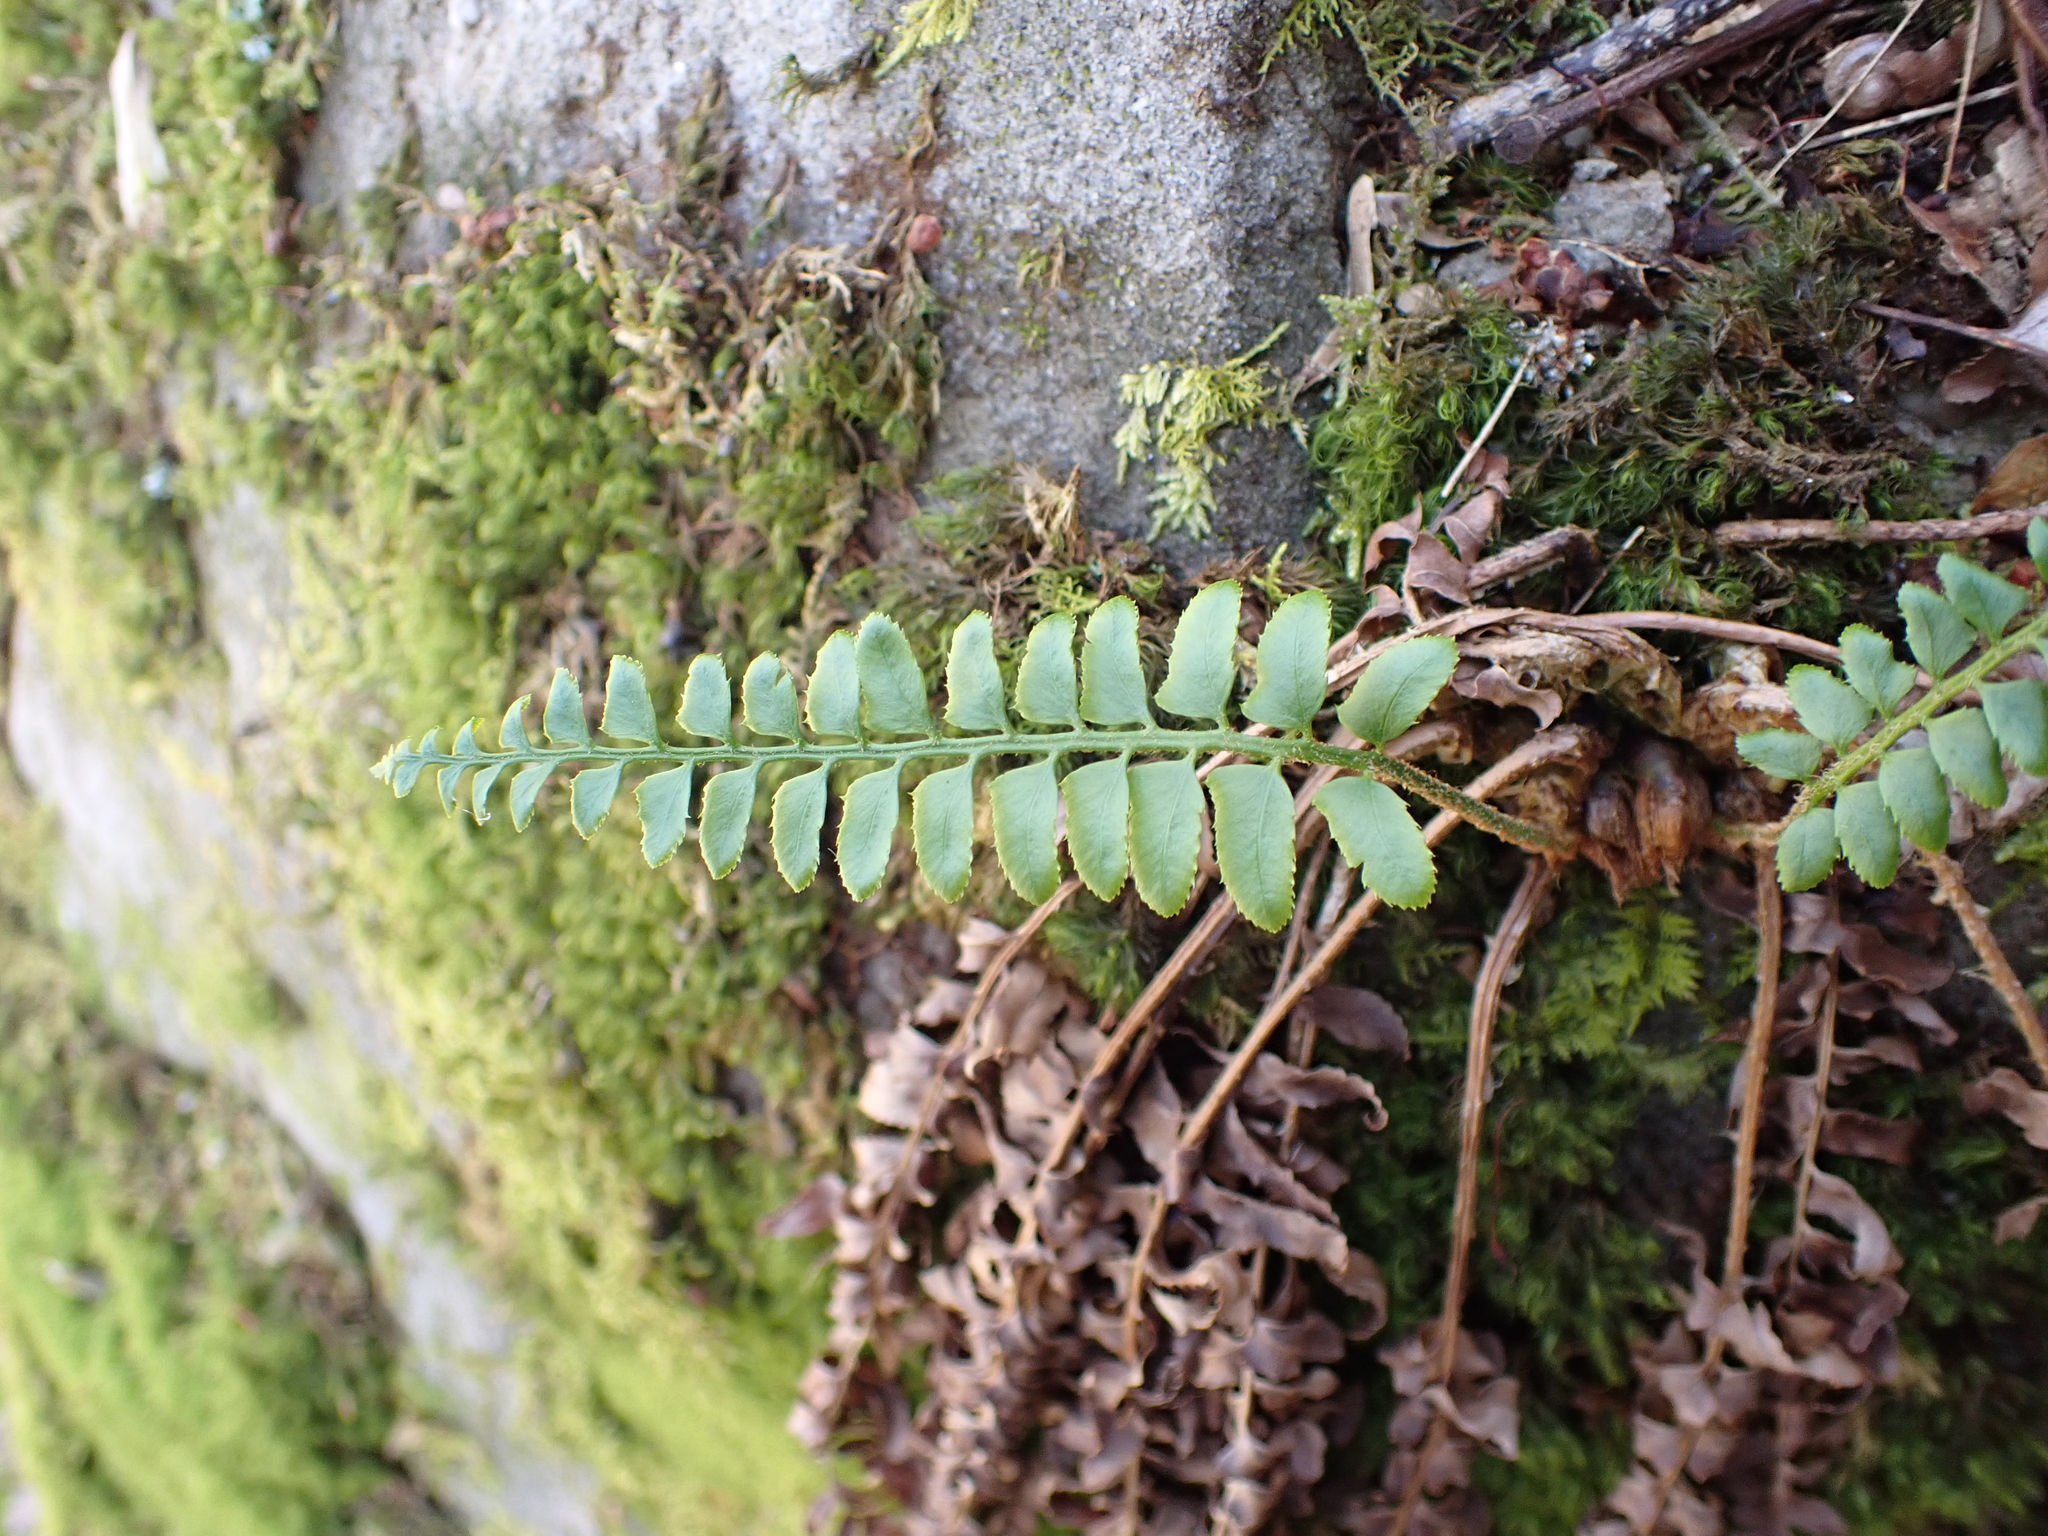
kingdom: Plantae
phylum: Tracheophyta
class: Polypodiopsida
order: Polypodiales
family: Dryopteridaceae
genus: Polystichum
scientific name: Polystichum acrostichoides
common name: Christmas fern
